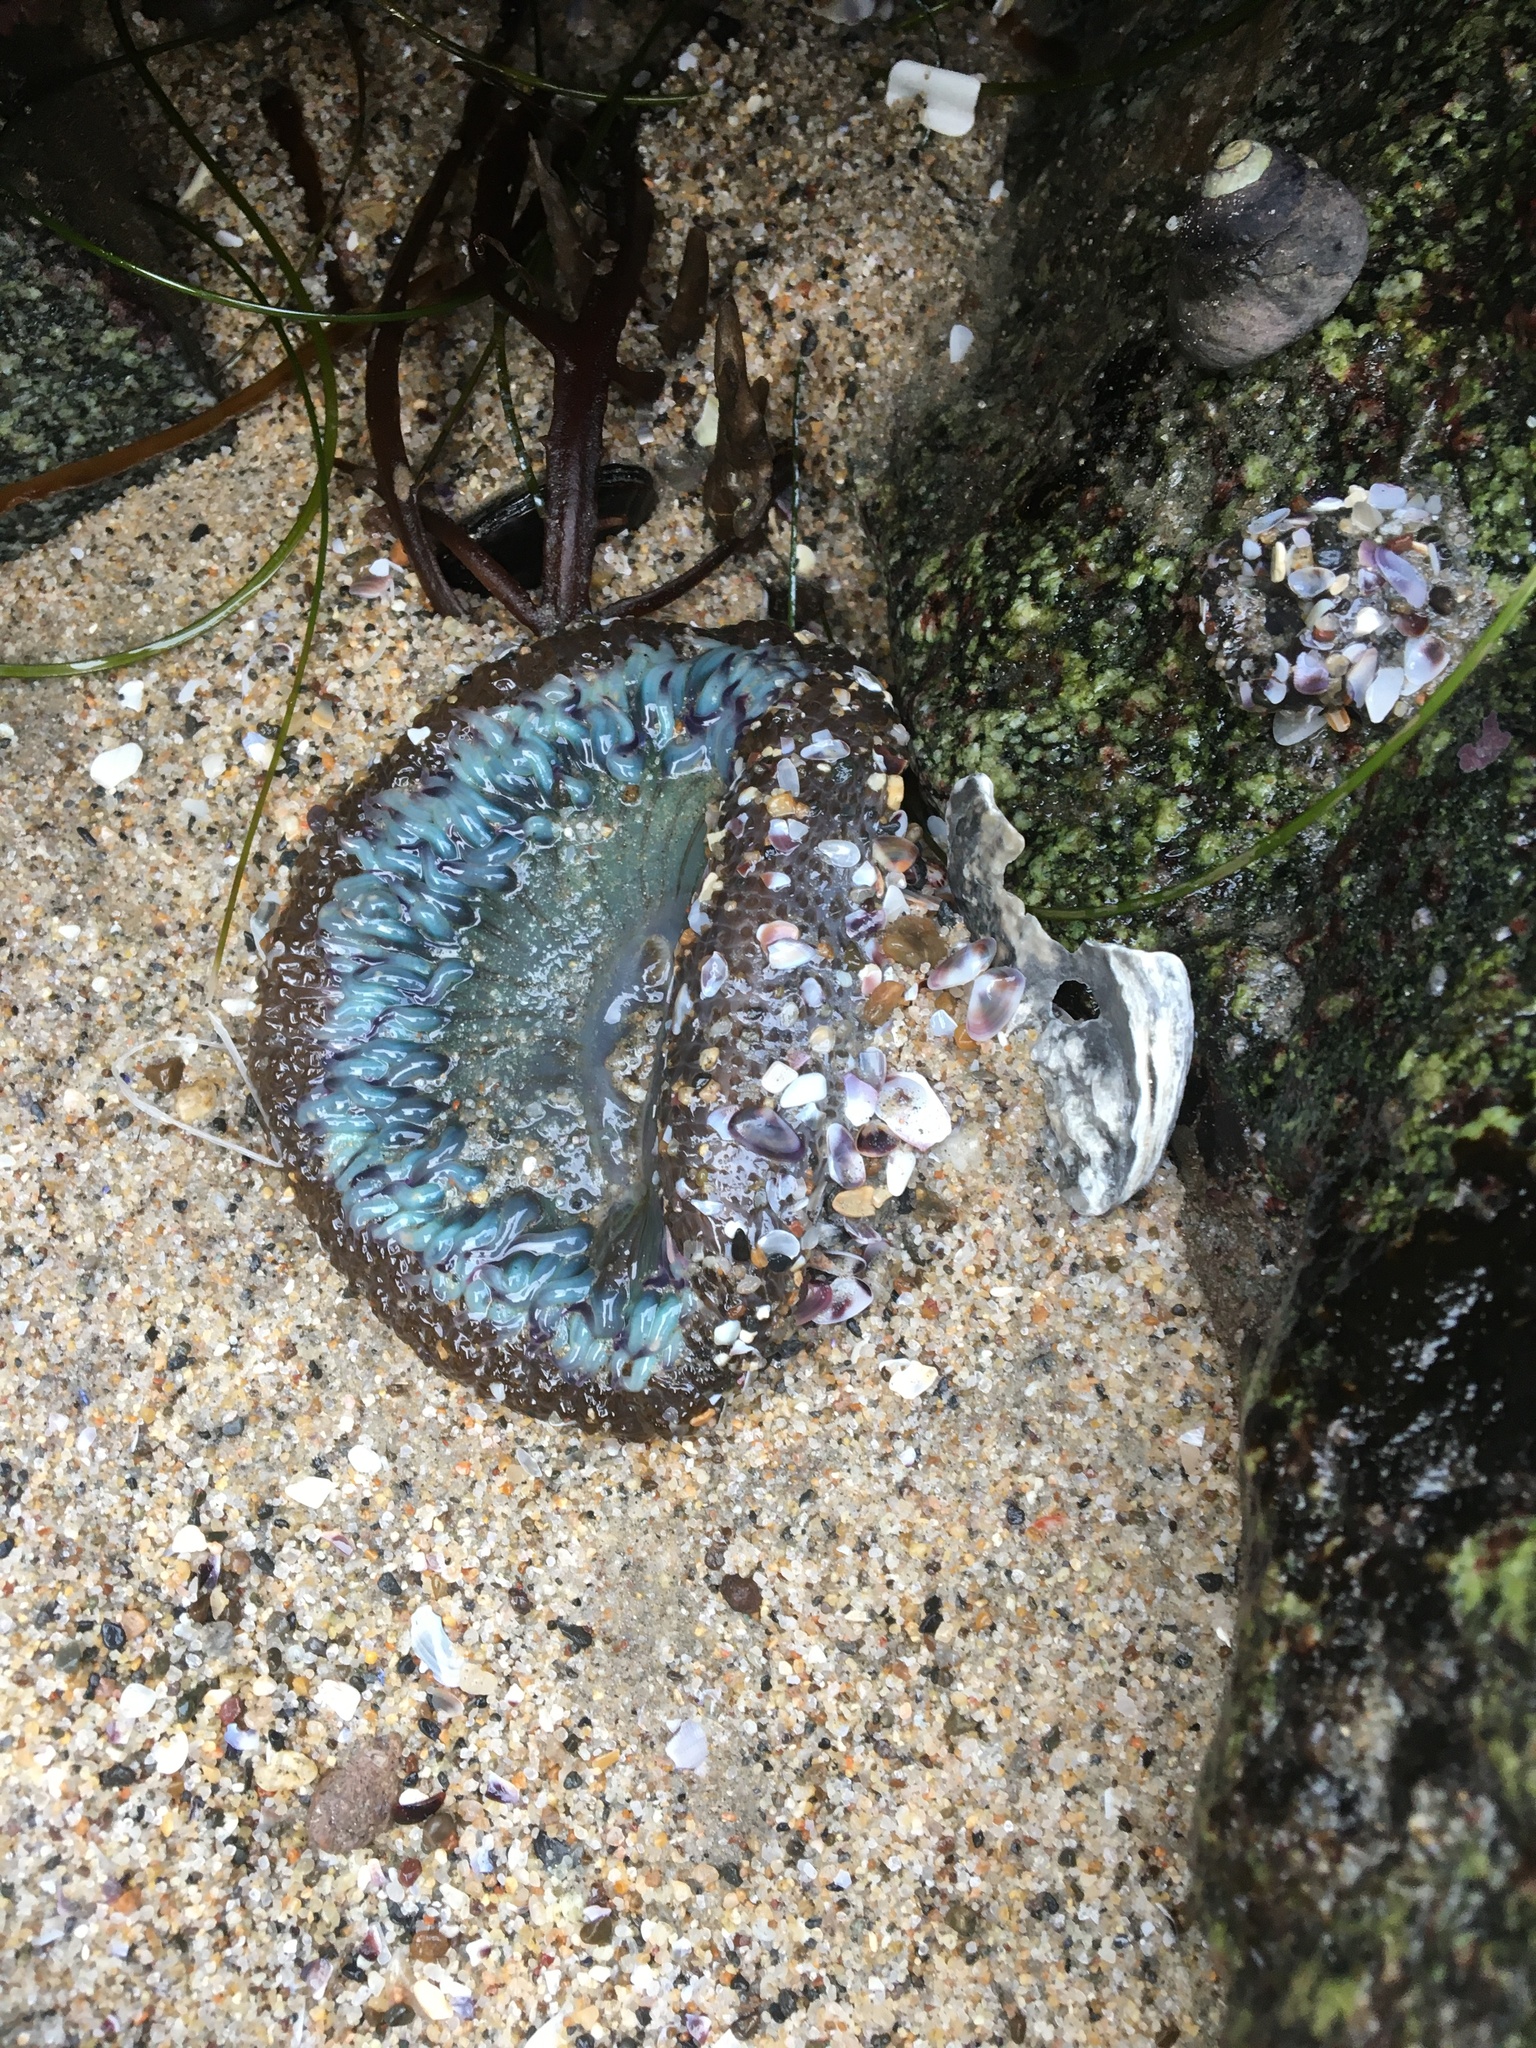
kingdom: Animalia
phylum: Cnidaria
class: Anthozoa
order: Actiniaria
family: Actiniidae
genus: Anthopleura
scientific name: Anthopleura sola
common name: Sun anemone
